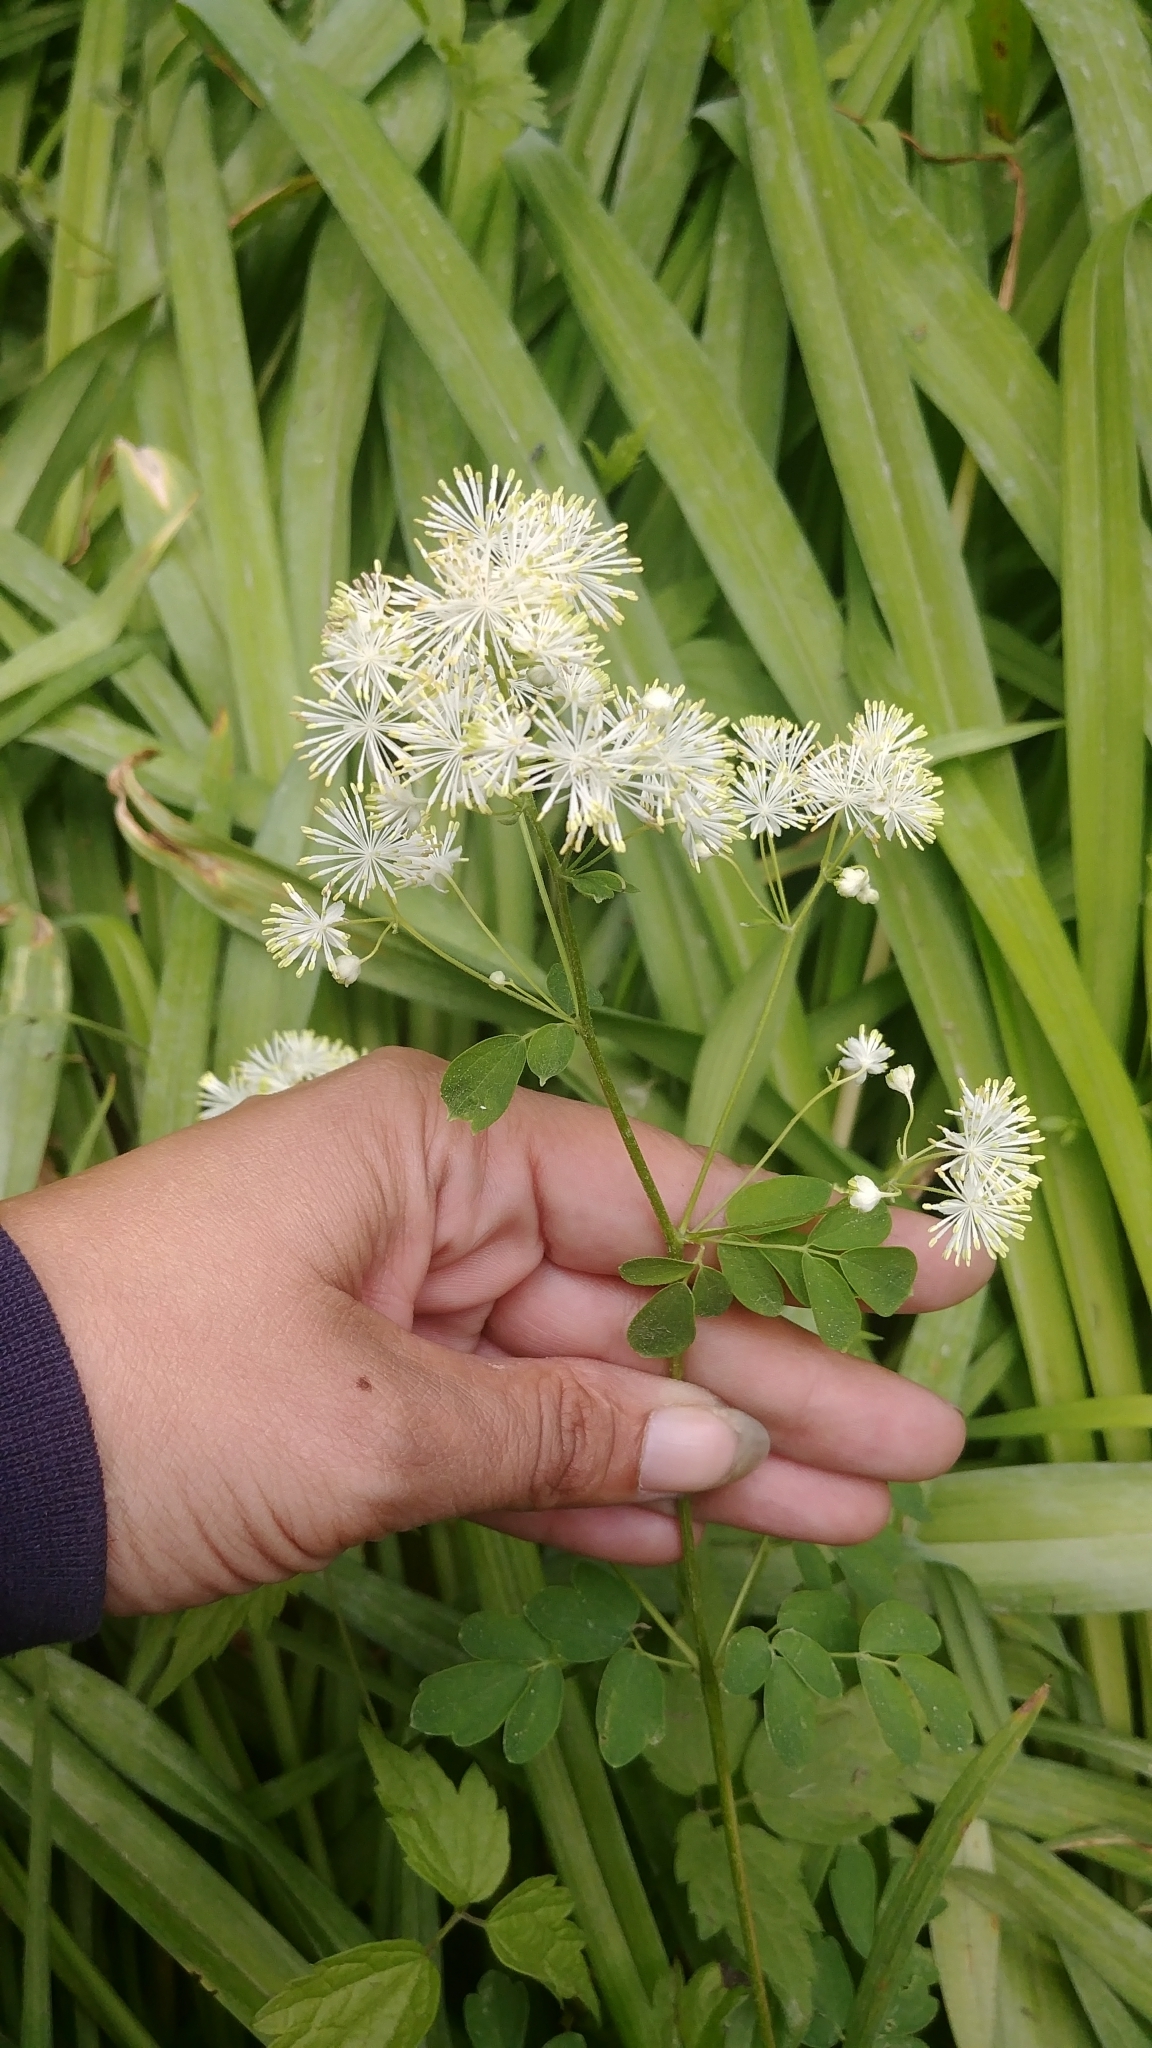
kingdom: Plantae
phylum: Tracheophyta
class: Magnoliopsida
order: Ranunculales
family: Ranunculaceae
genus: Thalictrum
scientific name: Thalictrum pubescens
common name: King-of-the-meadow
